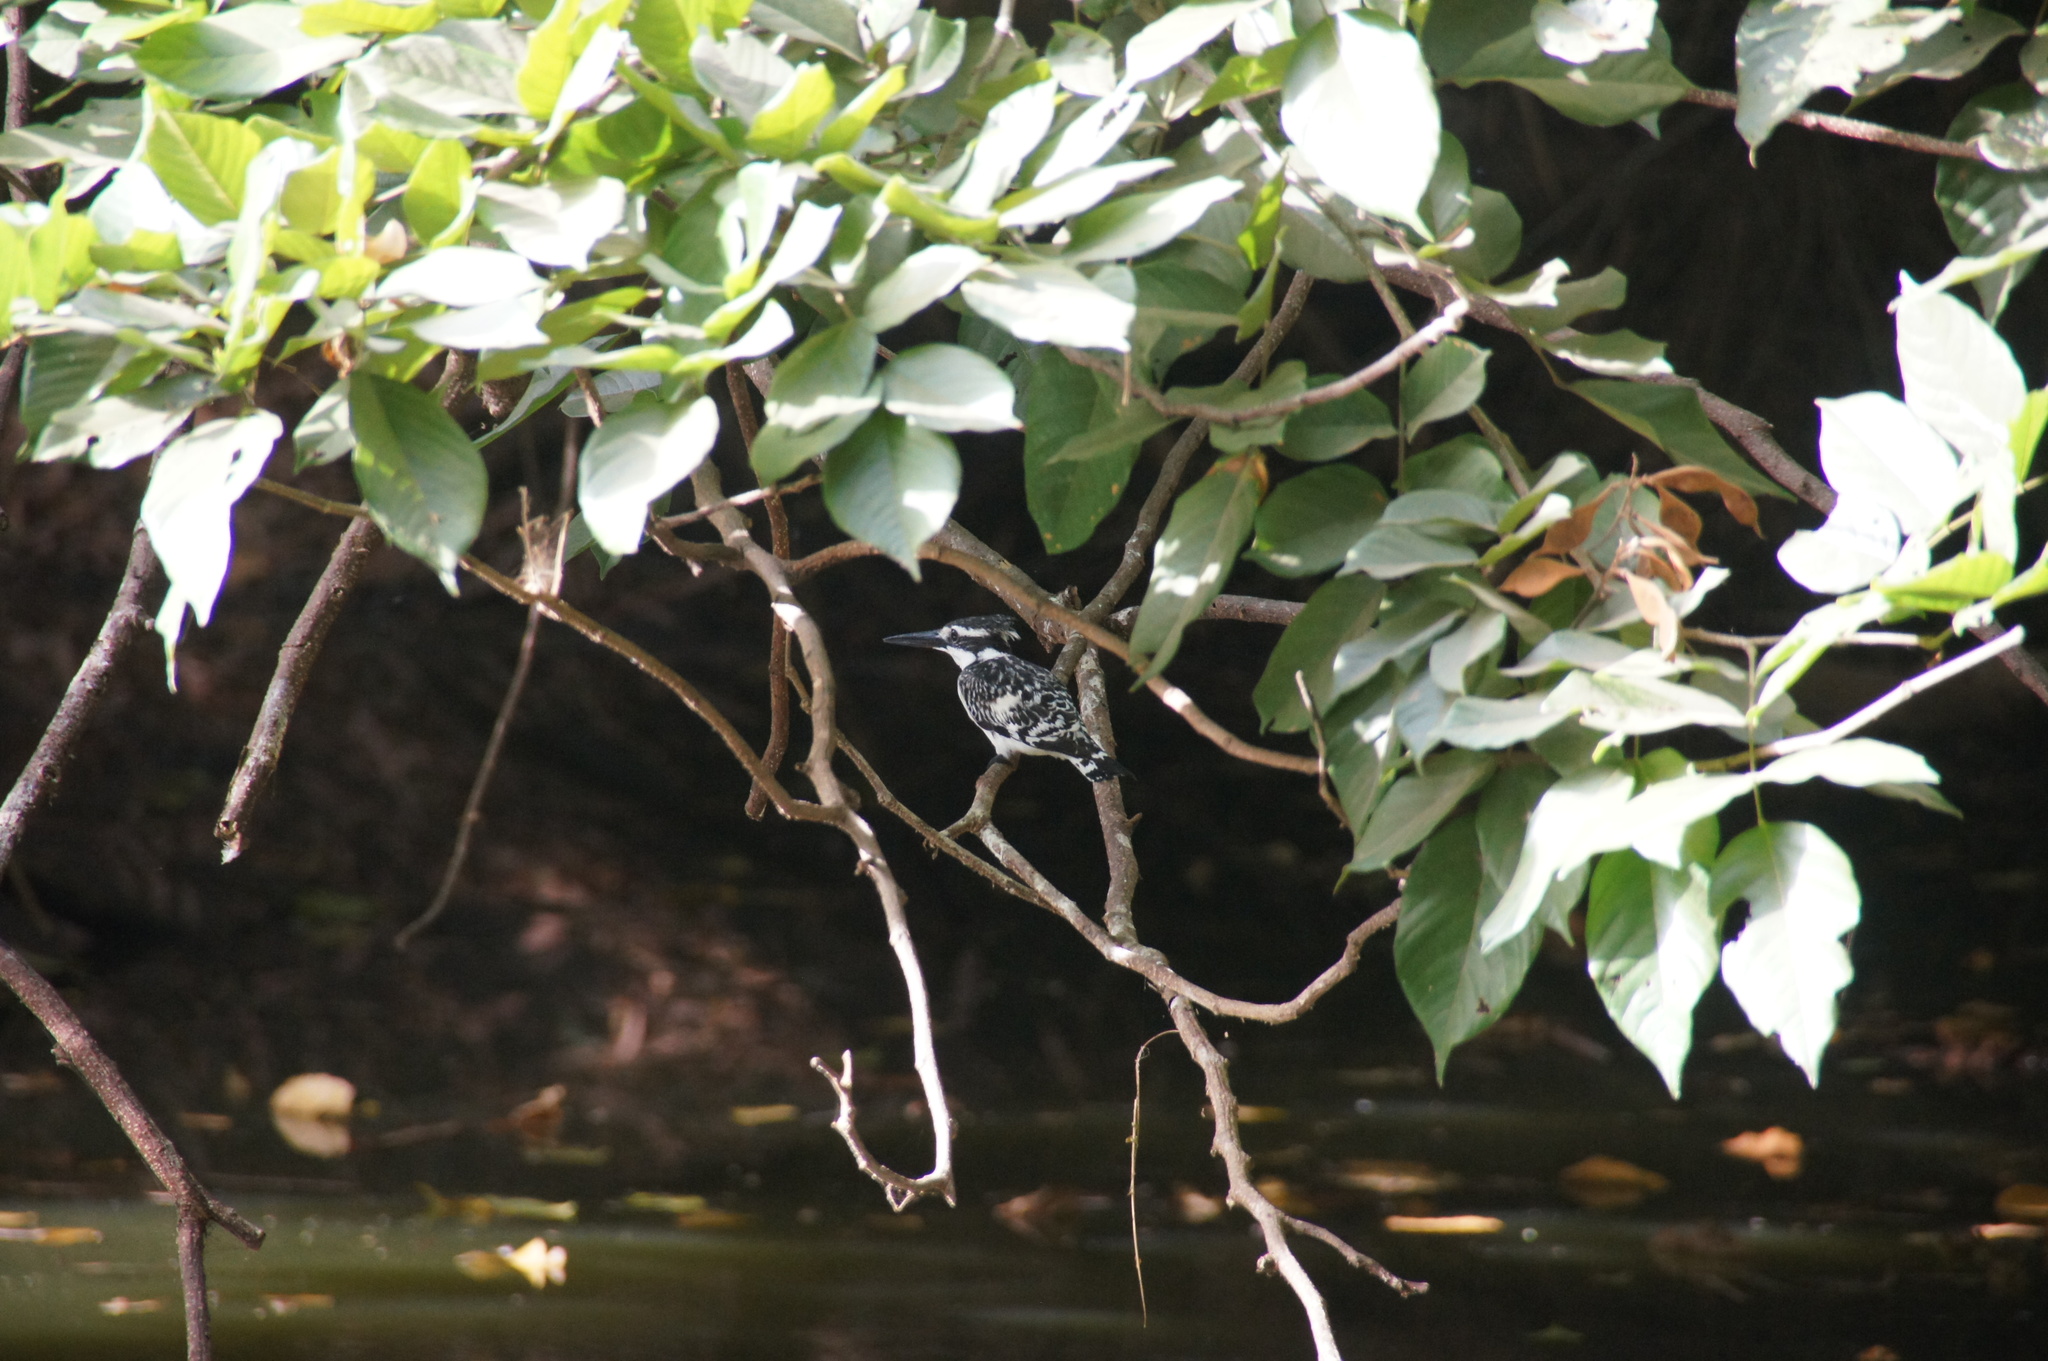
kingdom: Animalia
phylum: Chordata
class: Aves
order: Coraciiformes
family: Alcedinidae
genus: Ceryle
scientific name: Ceryle rudis
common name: Pied kingfisher
